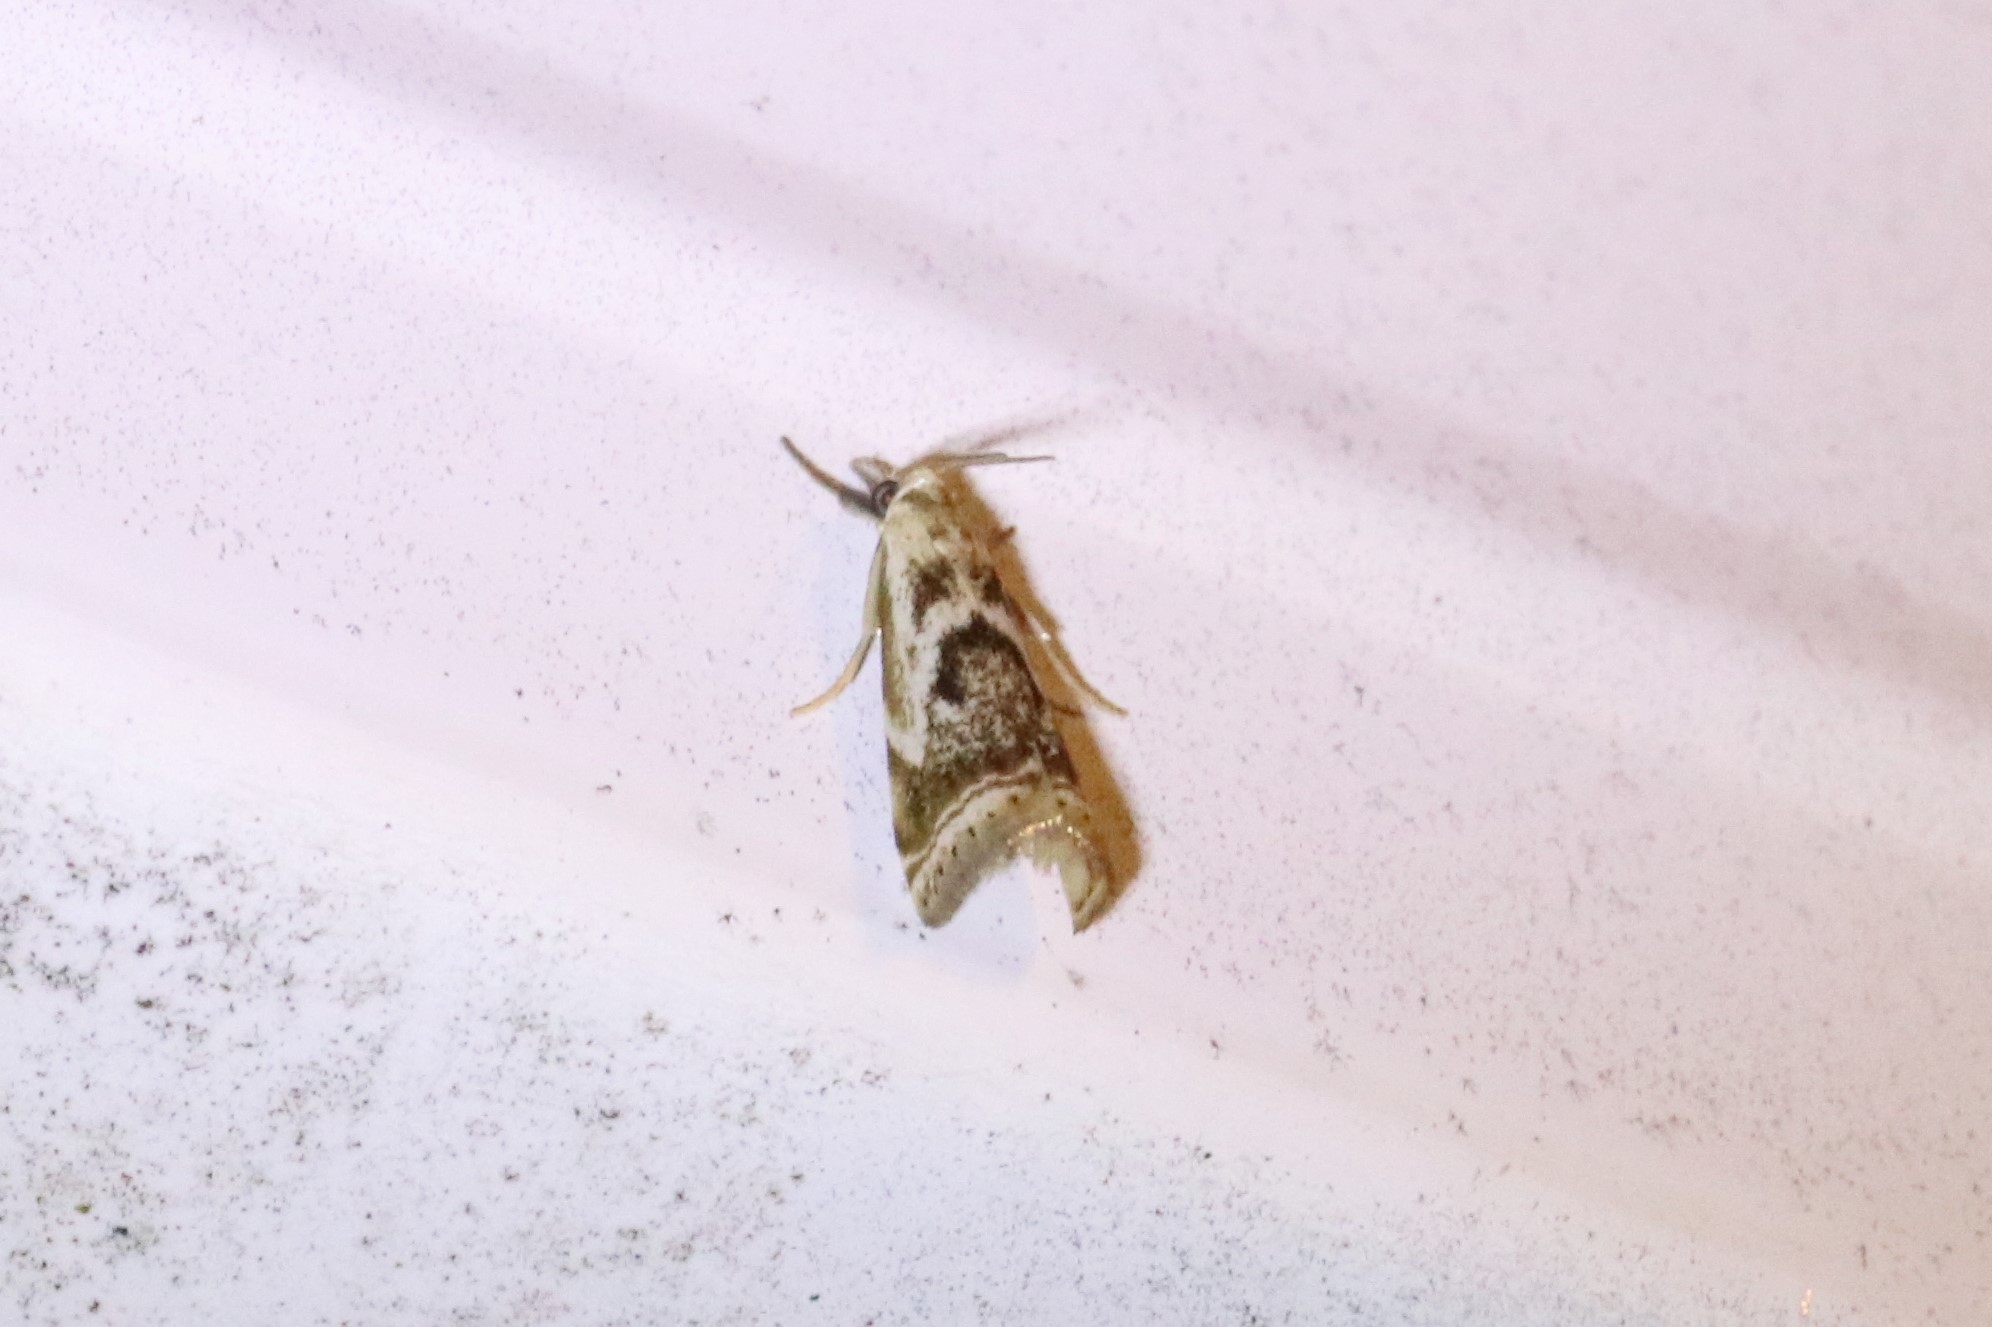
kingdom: Animalia
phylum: Arthropoda
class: Insecta
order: Lepidoptera
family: Crambidae
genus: Microcrambus
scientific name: Microcrambus elegans
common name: Elegant grass-veneer
